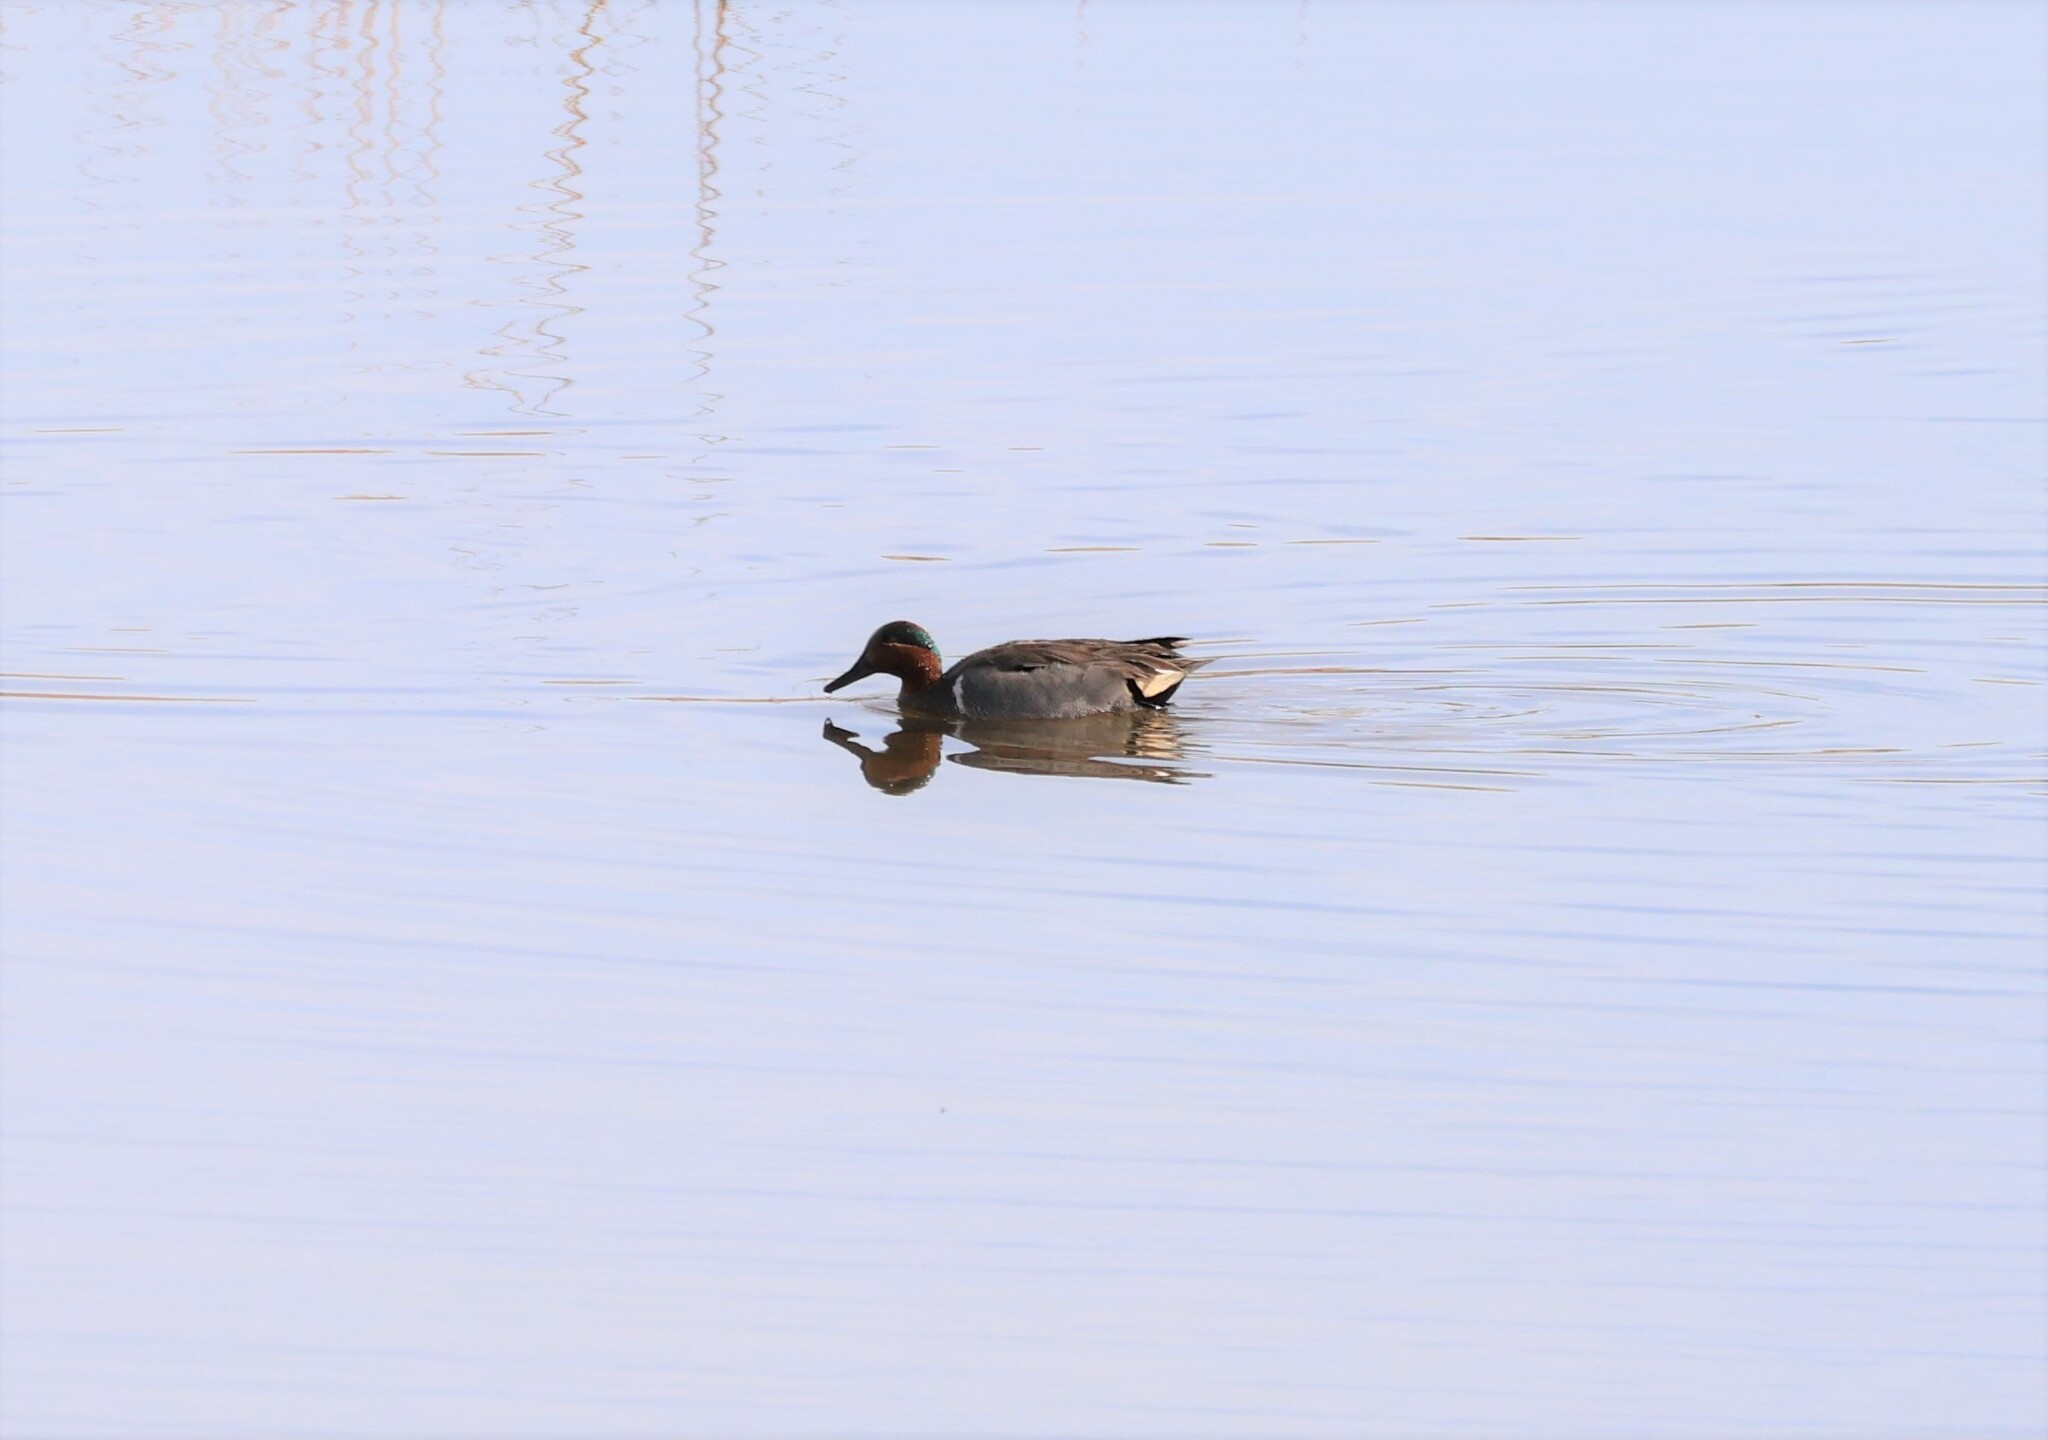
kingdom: Animalia
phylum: Chordata
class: Aves
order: Anseriformes
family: Anatidae
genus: Anas
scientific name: Anas crecca
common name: Eurasian teal
